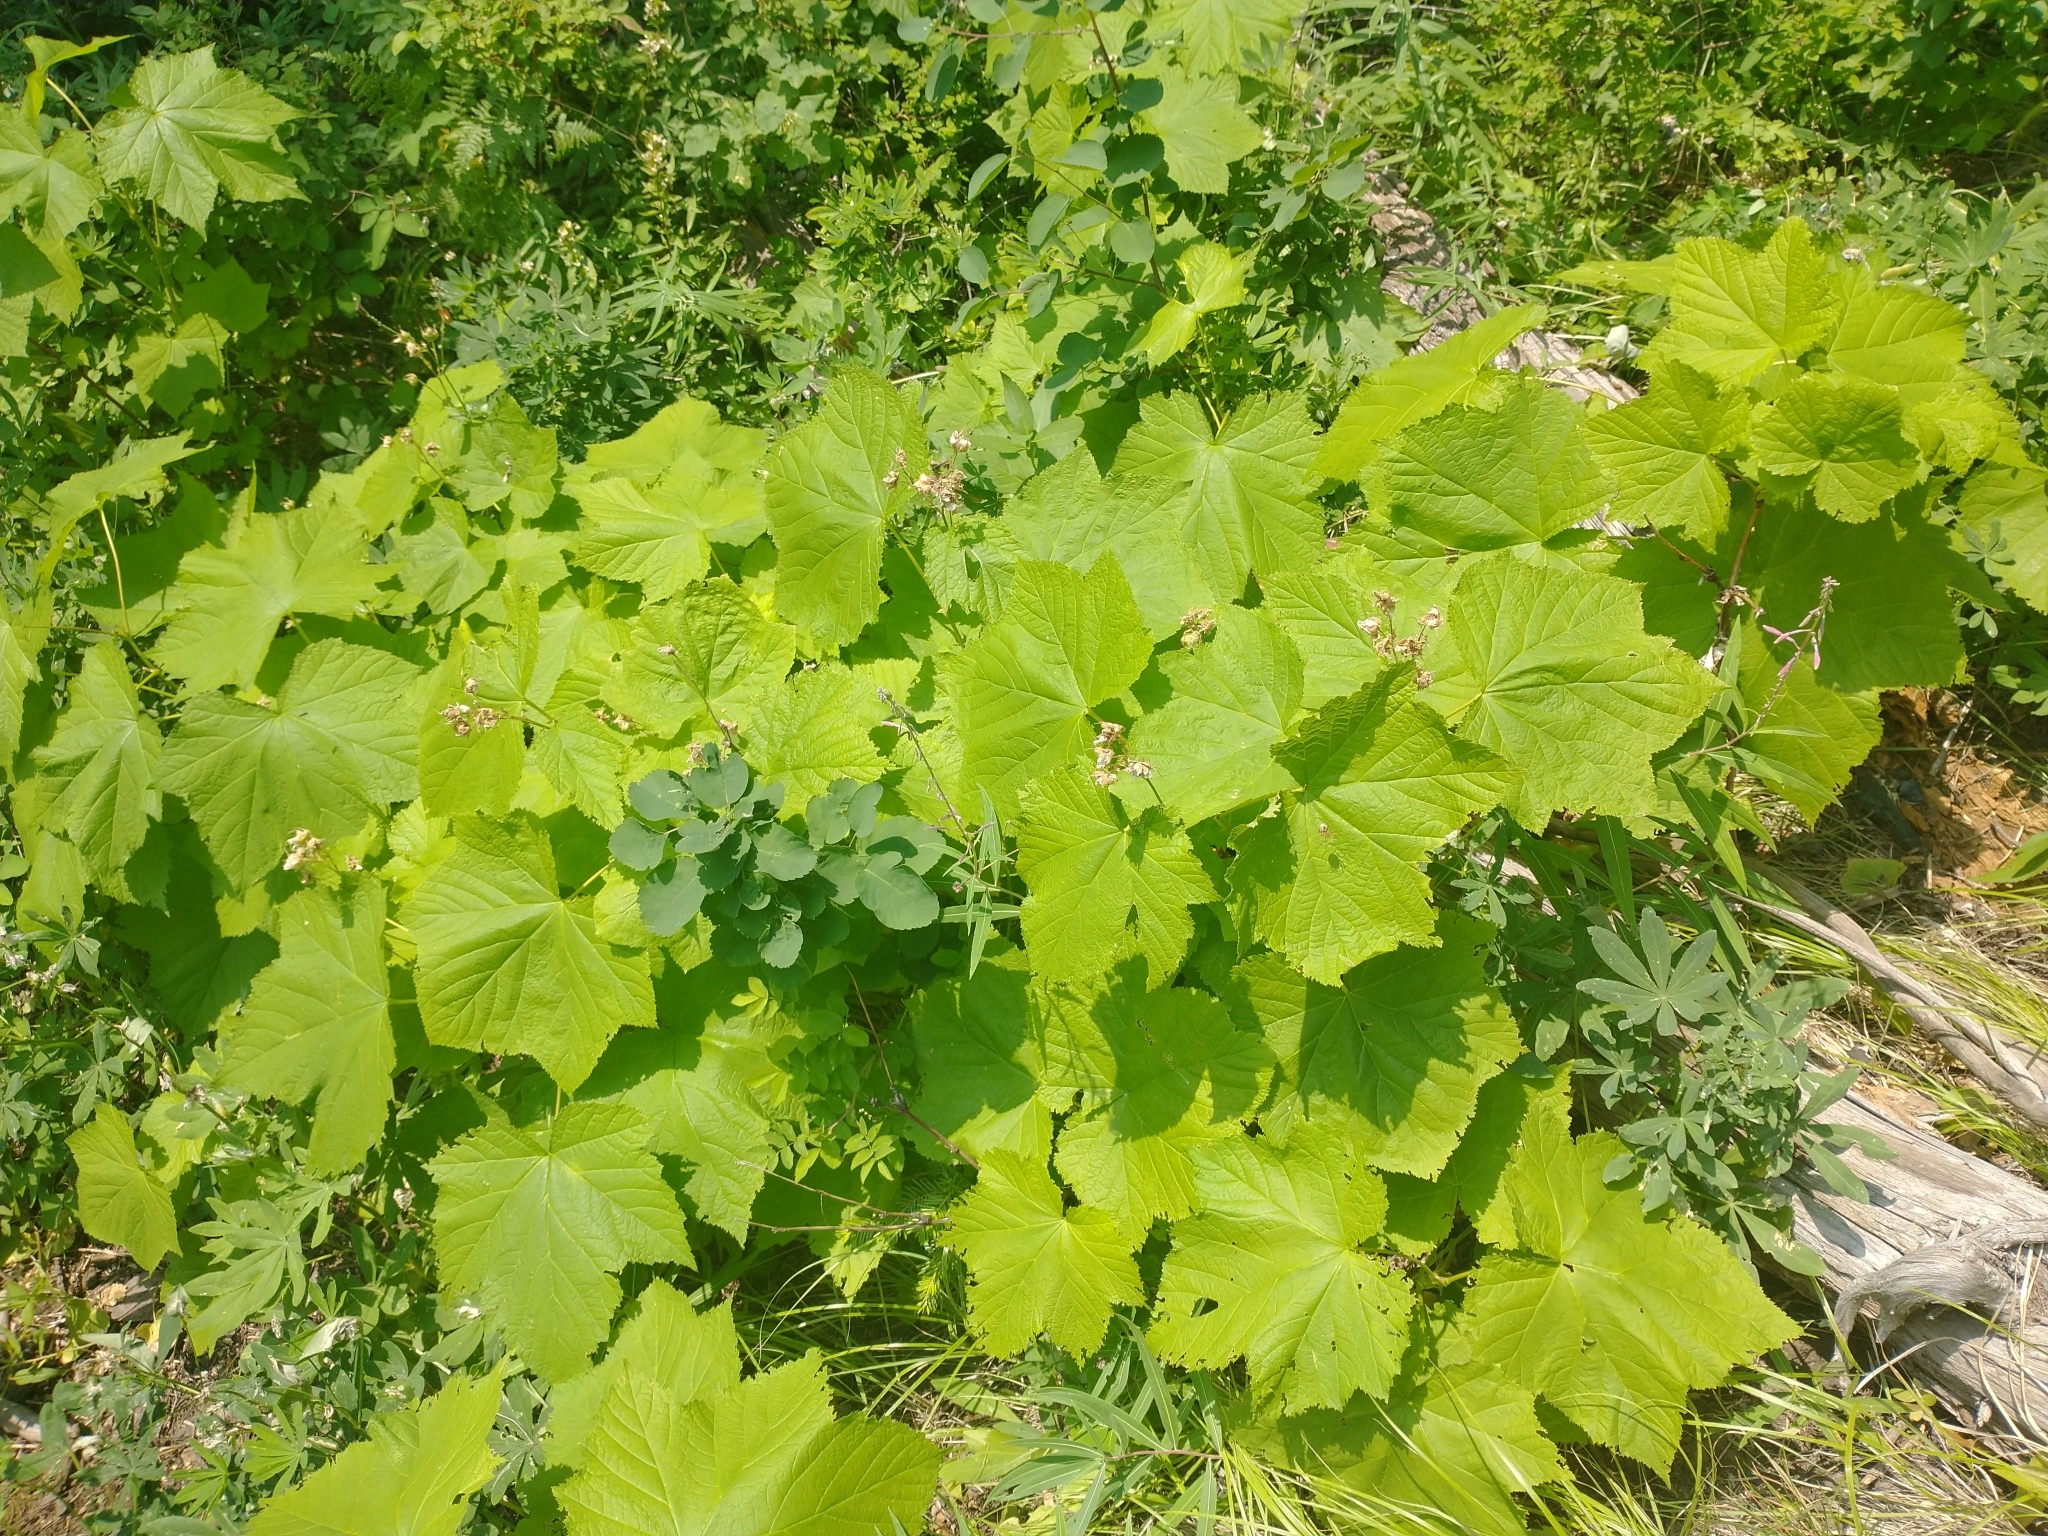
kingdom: Plantae
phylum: Tracheophyta
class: Magnoliopsida
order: Rosales
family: Rosaceae
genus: Rubus
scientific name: Rubus parviflorus
